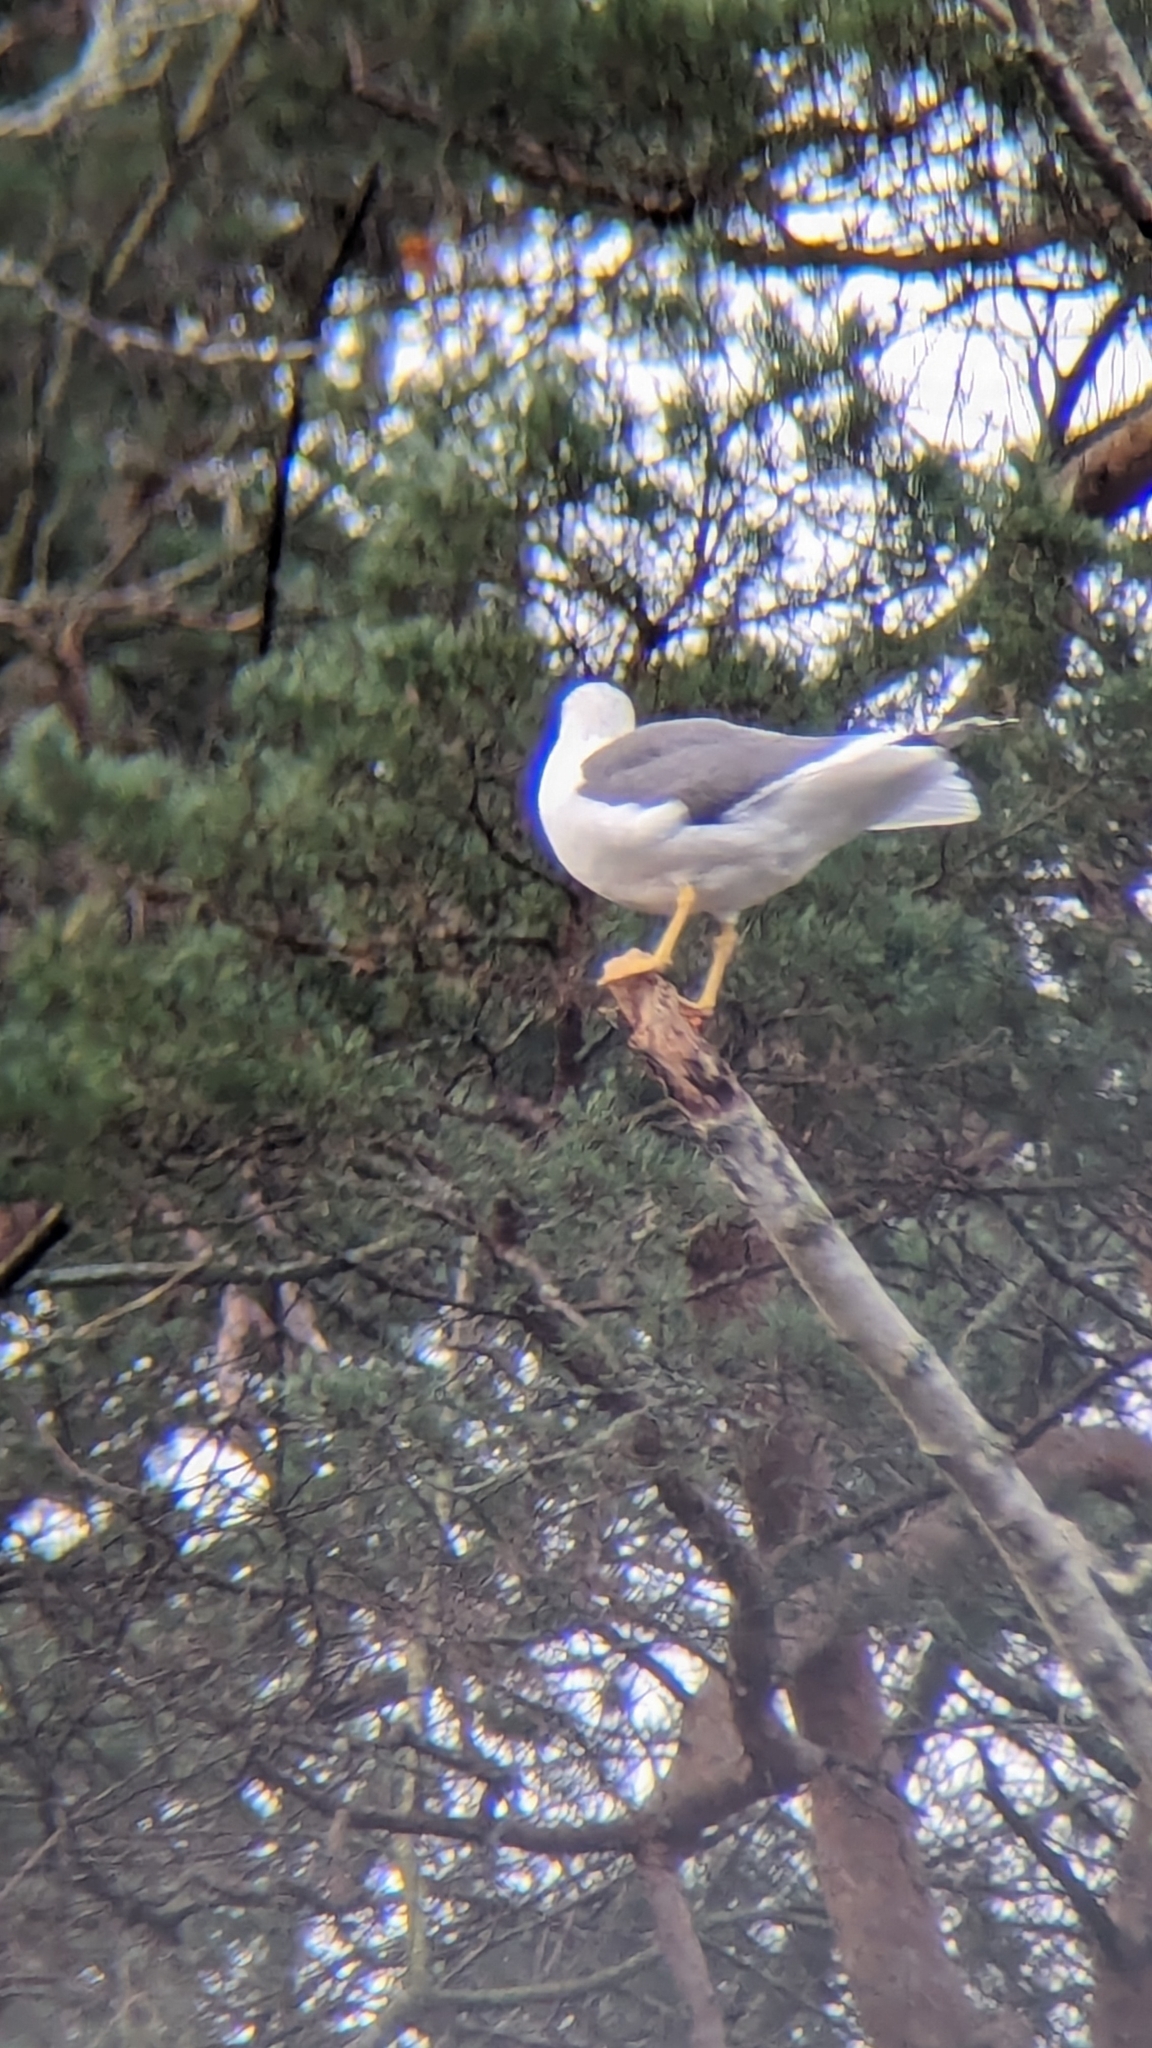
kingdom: Animalia
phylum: Chordata
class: Aves
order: Charadriiformes
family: Laridae
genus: Larus
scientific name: Larus fuscus
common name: Lesser black-backed gull
